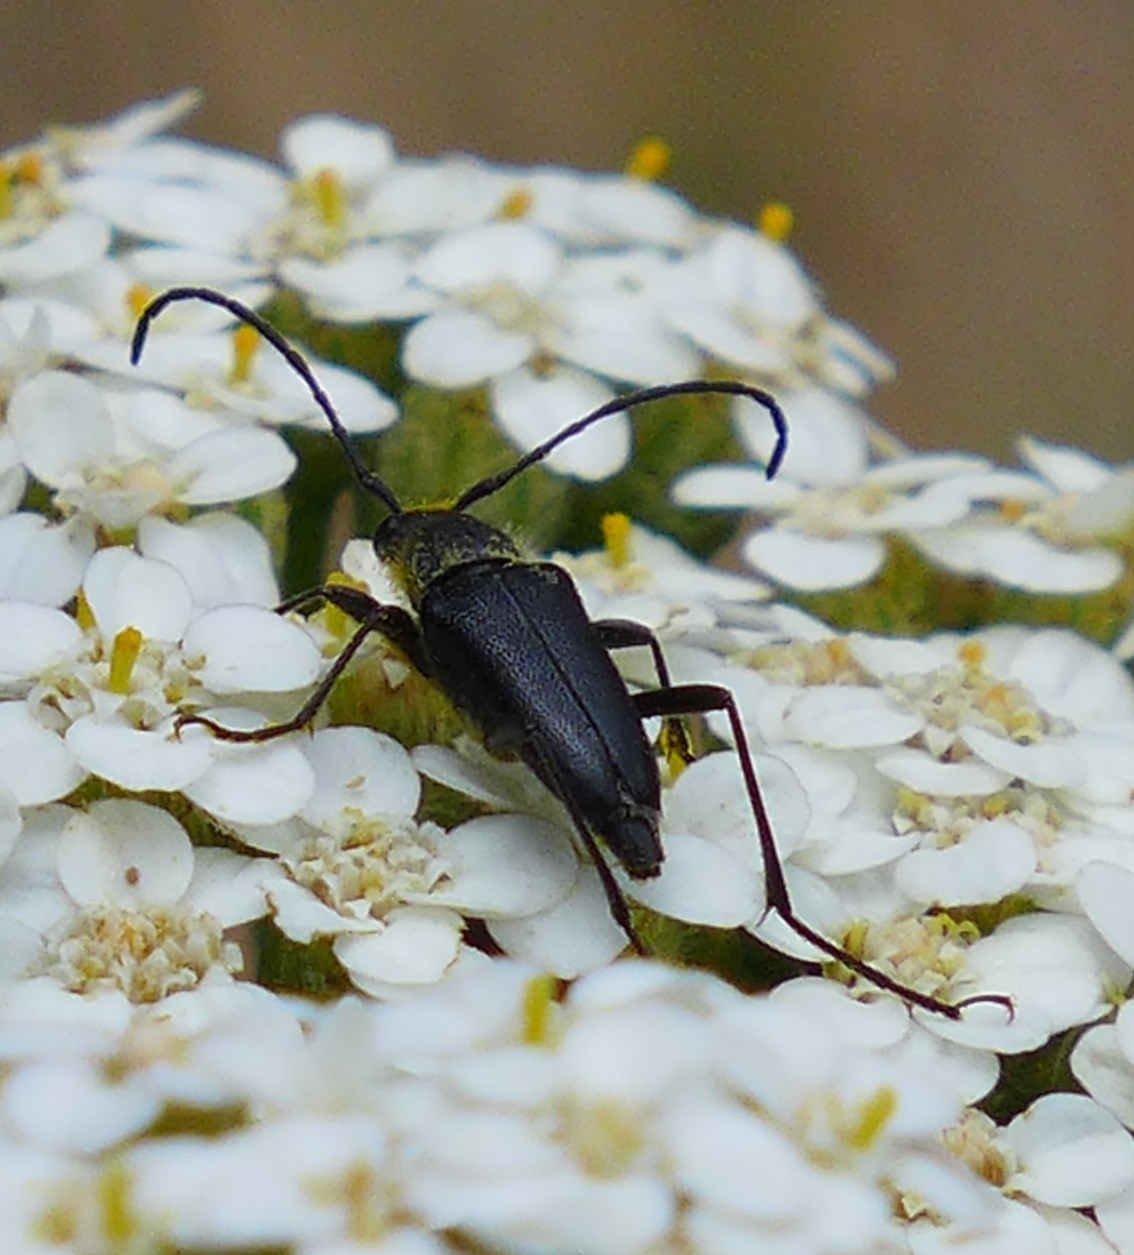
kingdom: Animalia
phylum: Arthropoda
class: Insecta
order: Coleoptera
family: Cerambycidae
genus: Anastrangalia
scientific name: Anastrangalia laetifica
